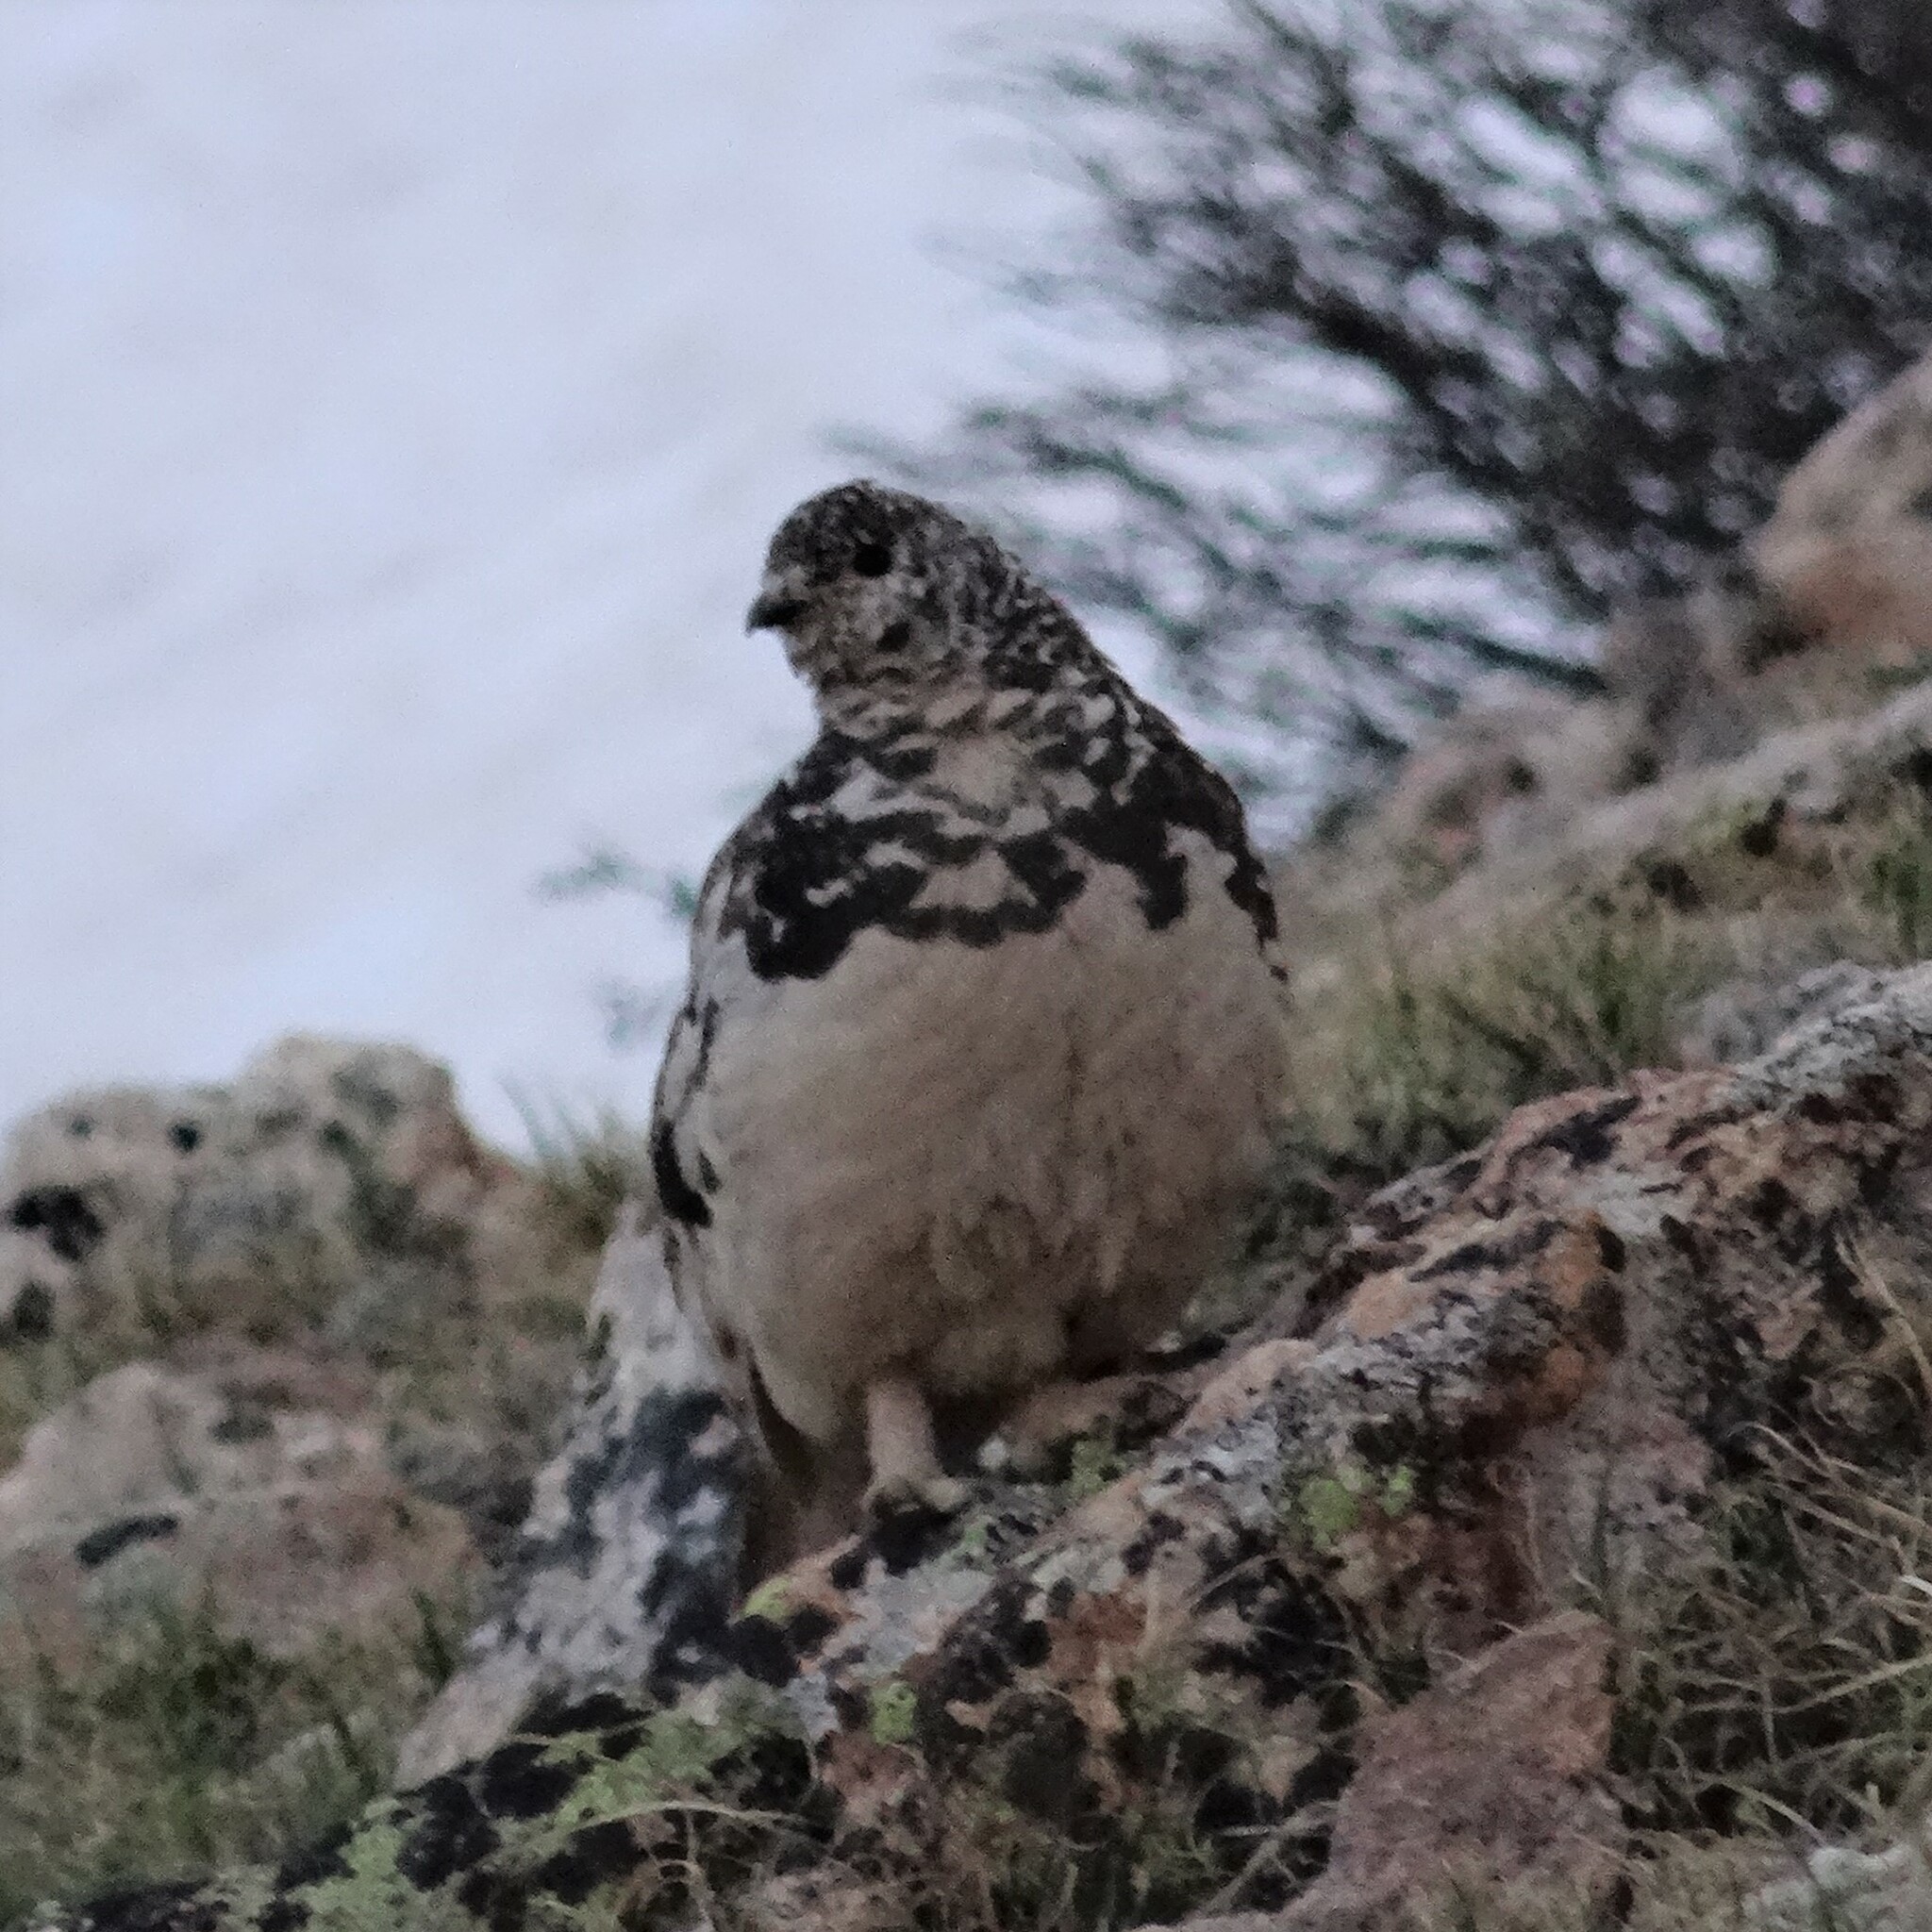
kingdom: Animalia
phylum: Chordata
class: Aves
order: Galliformes
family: Phasianidae
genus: Lagopus
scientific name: Lagopus leucura
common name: White-tailed ptarmigan
